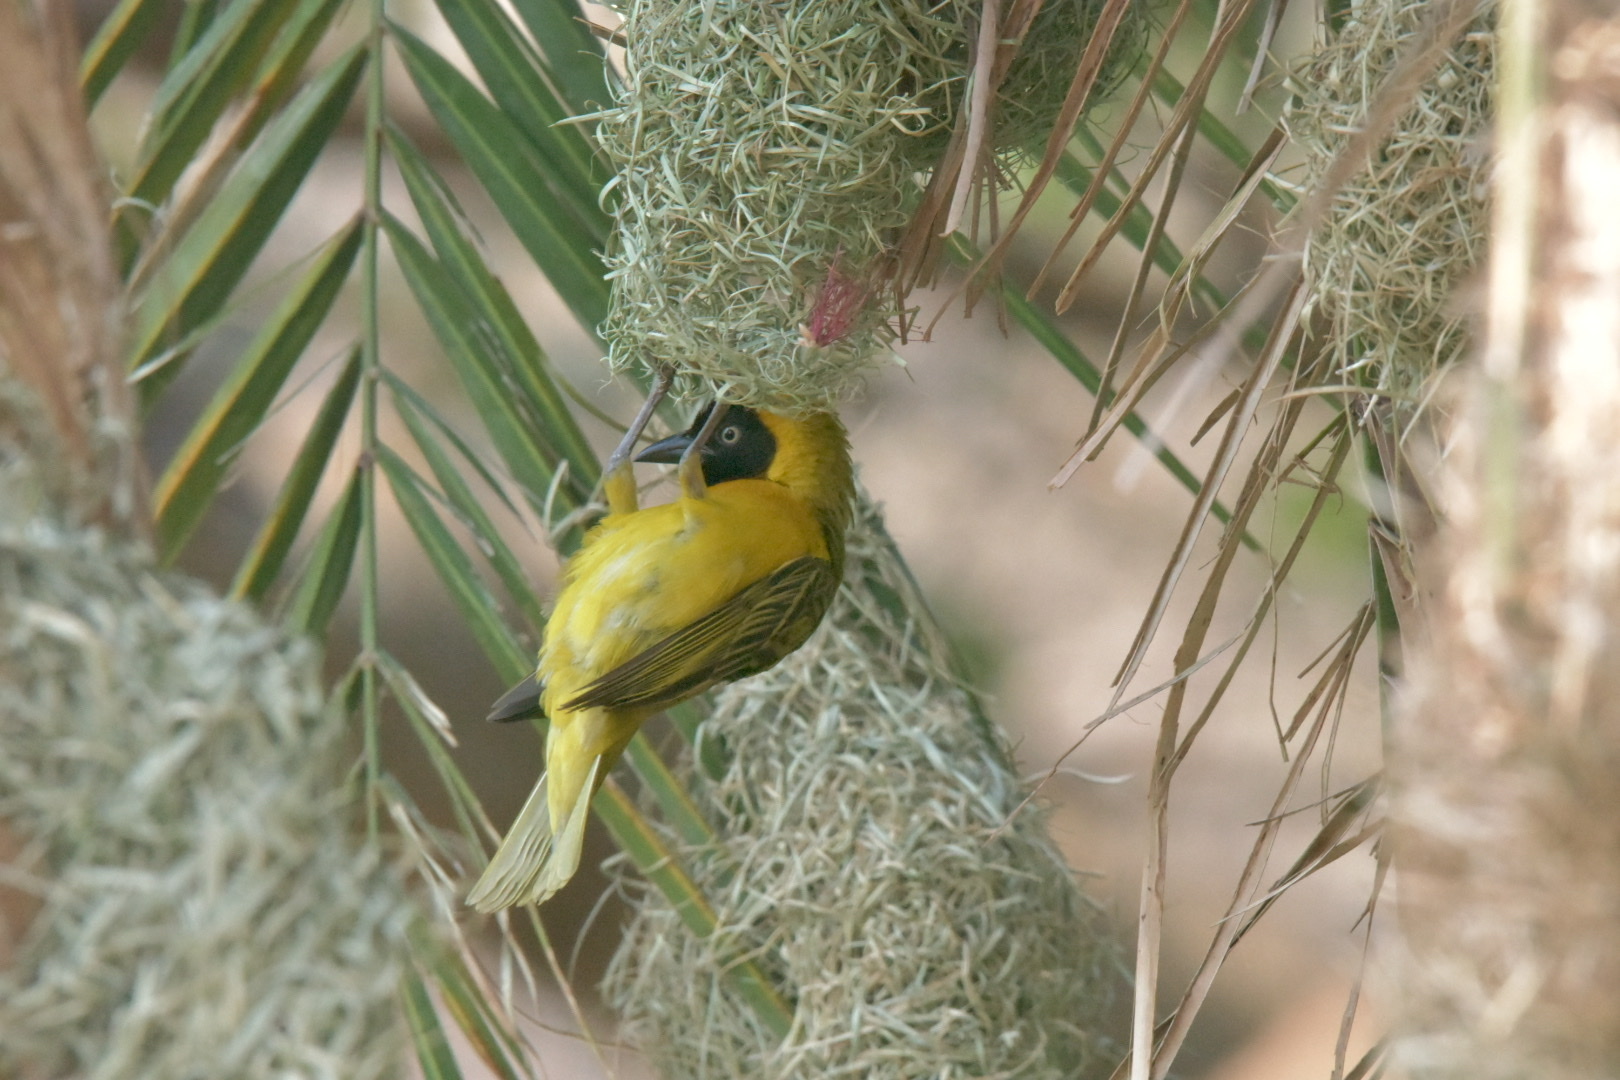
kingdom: Animalia
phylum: Chordata
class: Aves
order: Passeriformes
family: Ploceidae
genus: Ploceus
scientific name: Ploceus intermedius
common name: Lesser masked weaver
